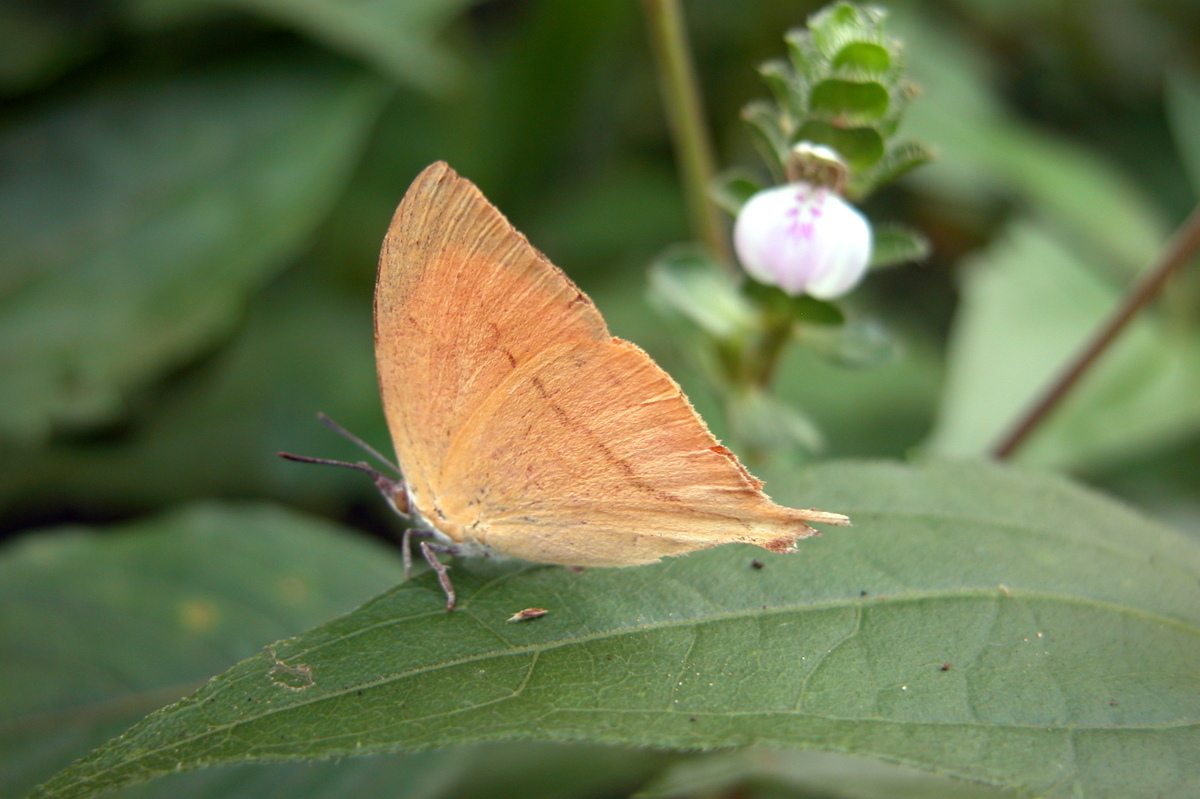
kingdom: Animalia
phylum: Arthropoda
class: Insecta
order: Lepidoptera
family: Lycaenidae
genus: Loxura
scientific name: Loxura atymnus
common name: Common yamfly
